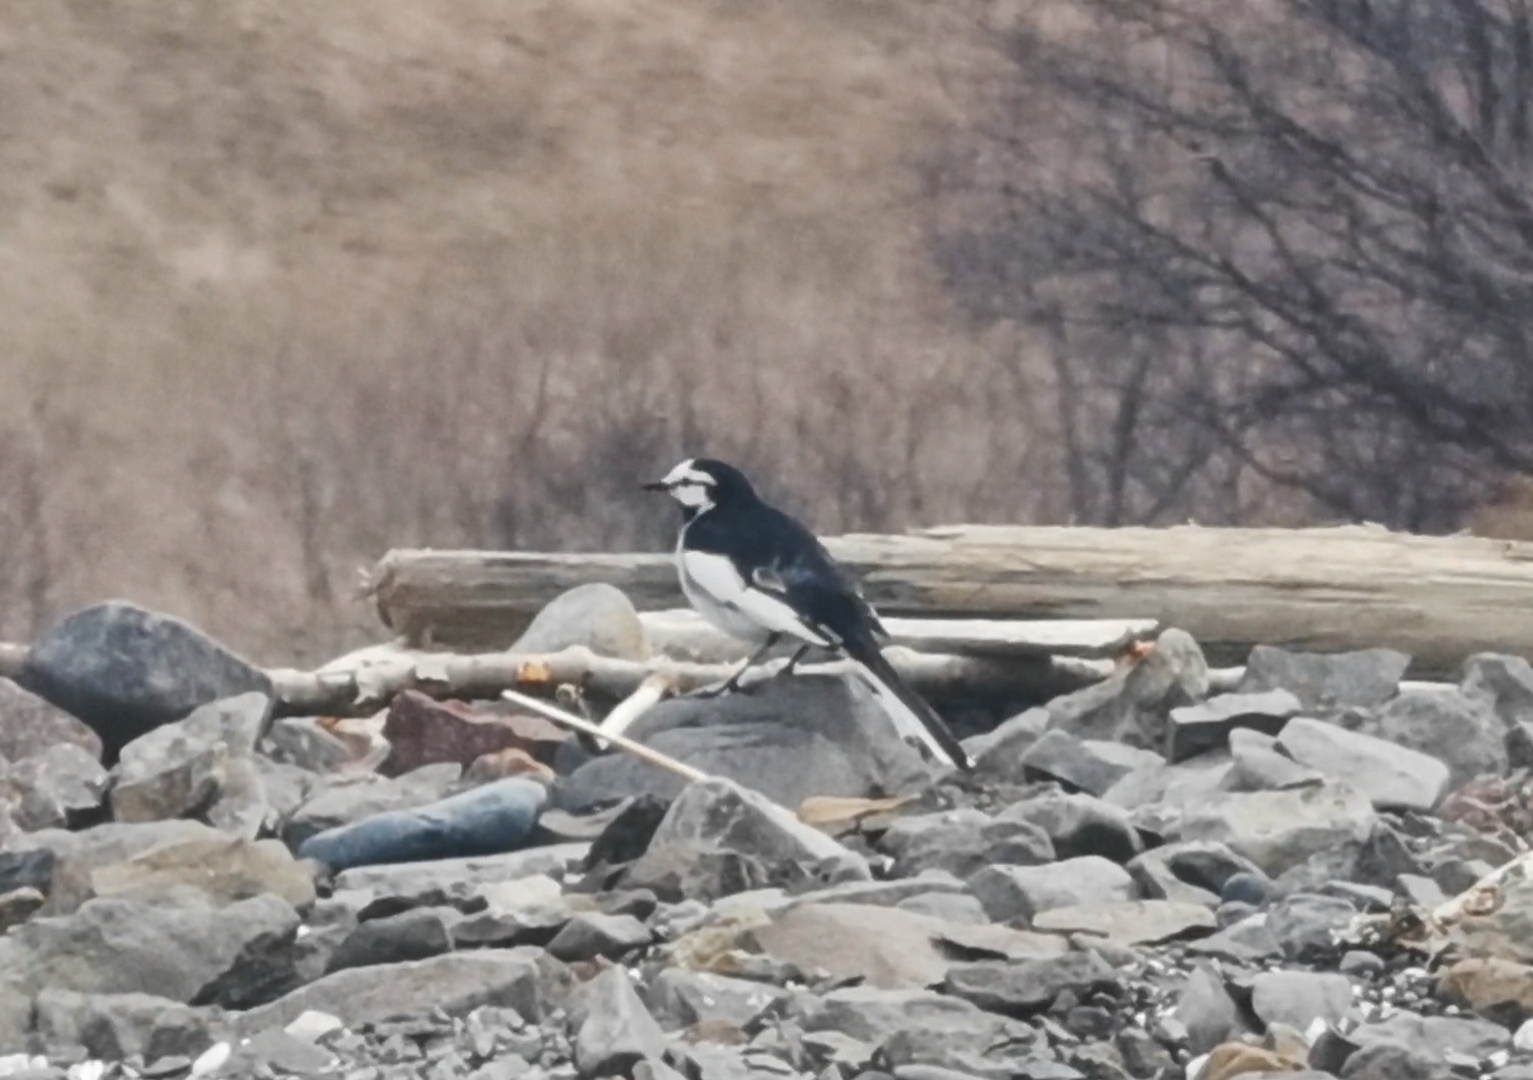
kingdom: Animalia
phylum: Chordata
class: Aves
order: Passeriformes
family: Motacillidae
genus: Motacilla
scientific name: Motacilla alba
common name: White wagtail
